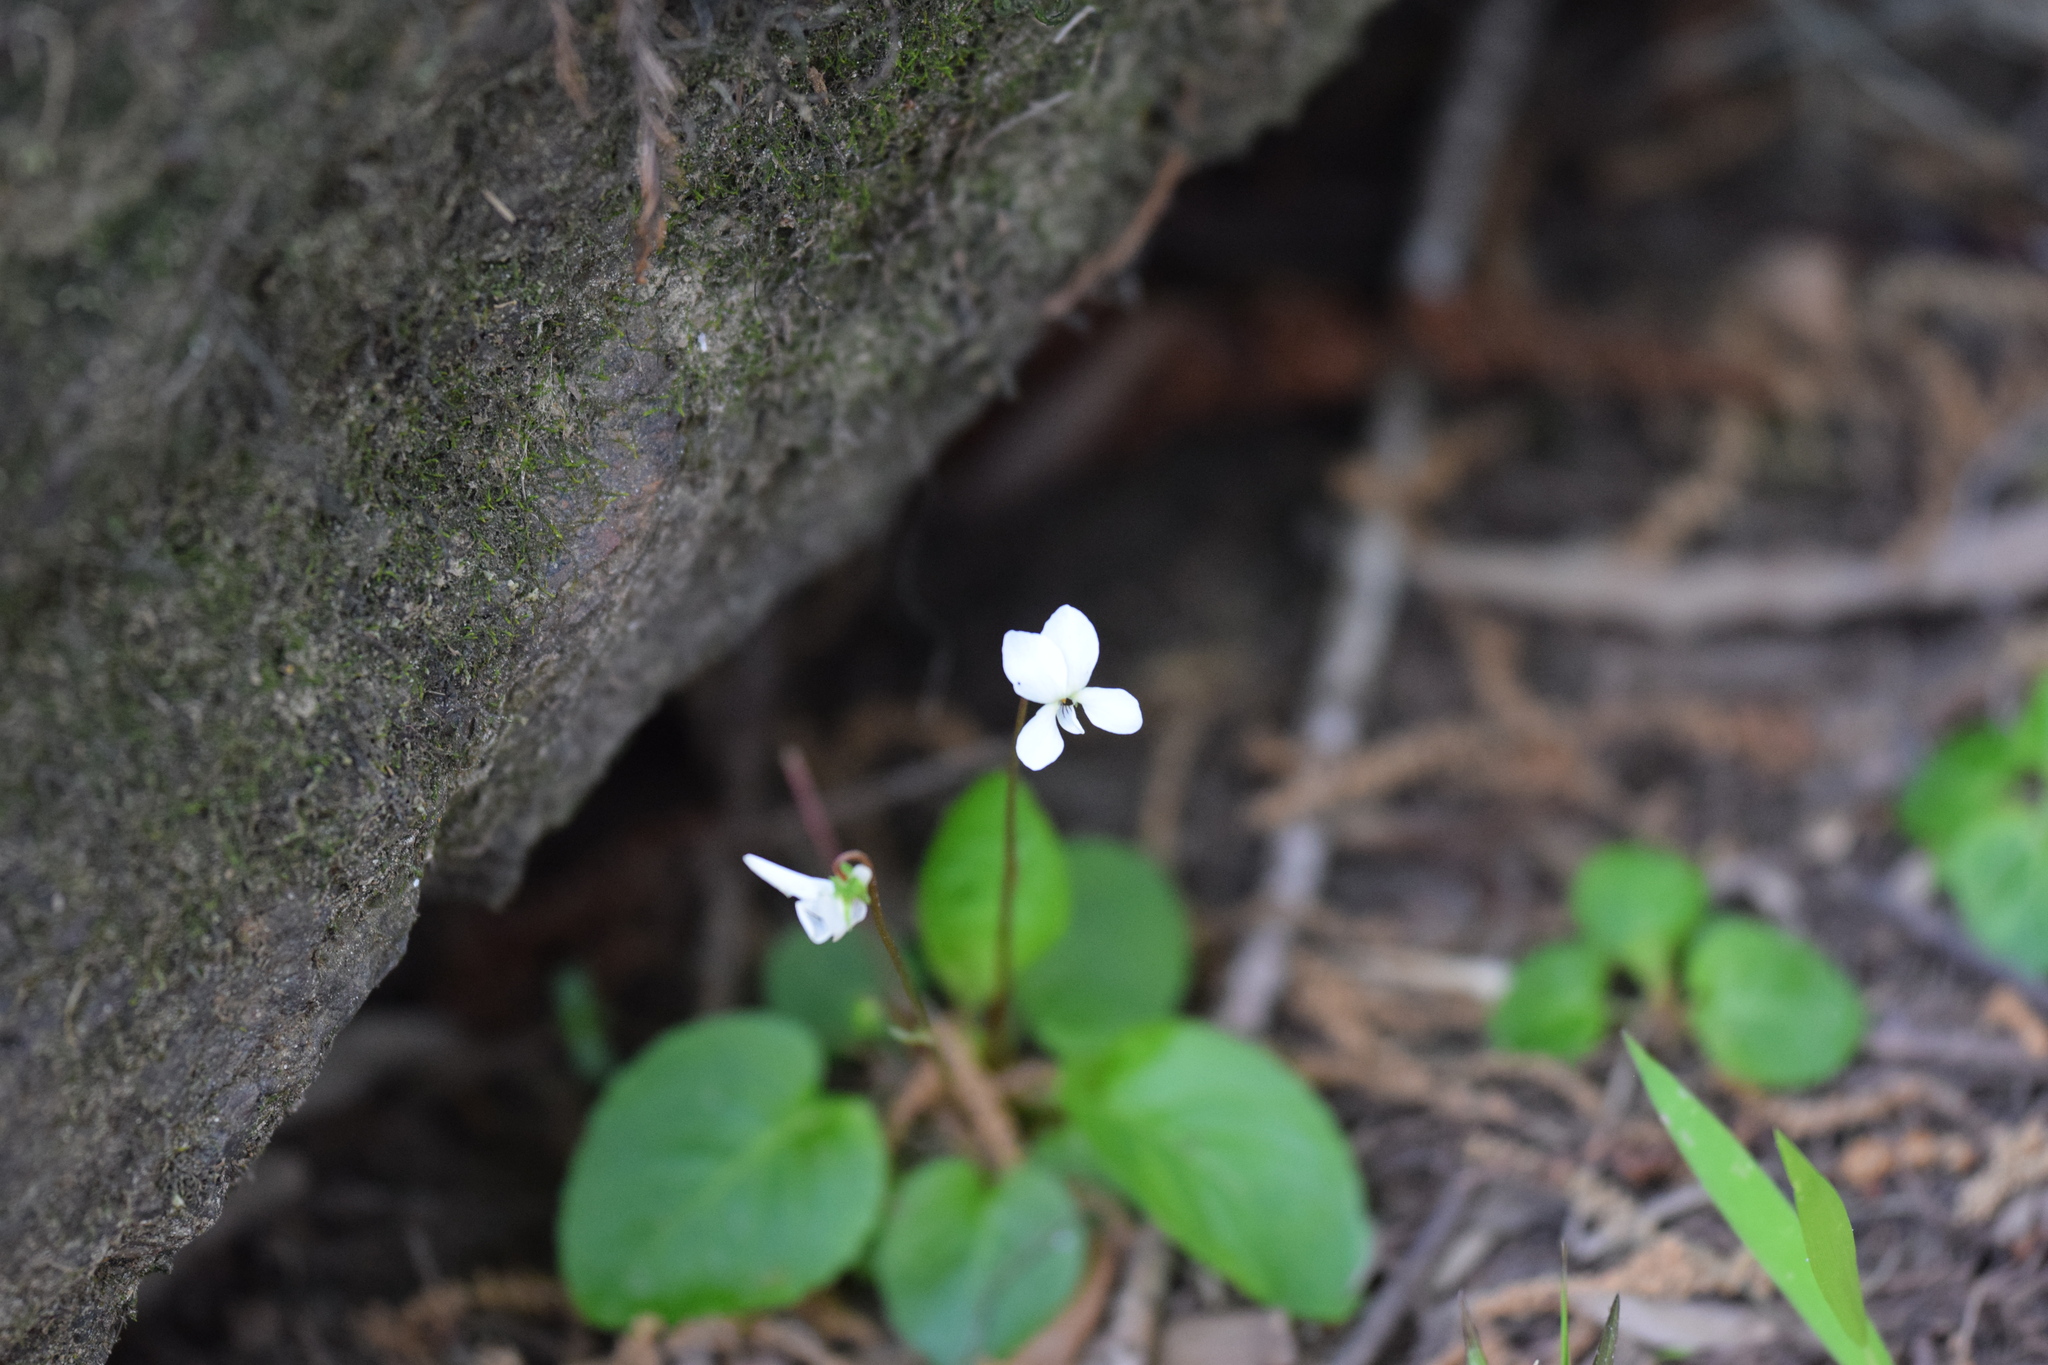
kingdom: Plantae
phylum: Tracheophyta
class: Magnoliopsida
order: Malpighiales
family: Violaceae
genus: Viola
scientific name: Viola primulifolia
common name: Primrose-leaf violet
